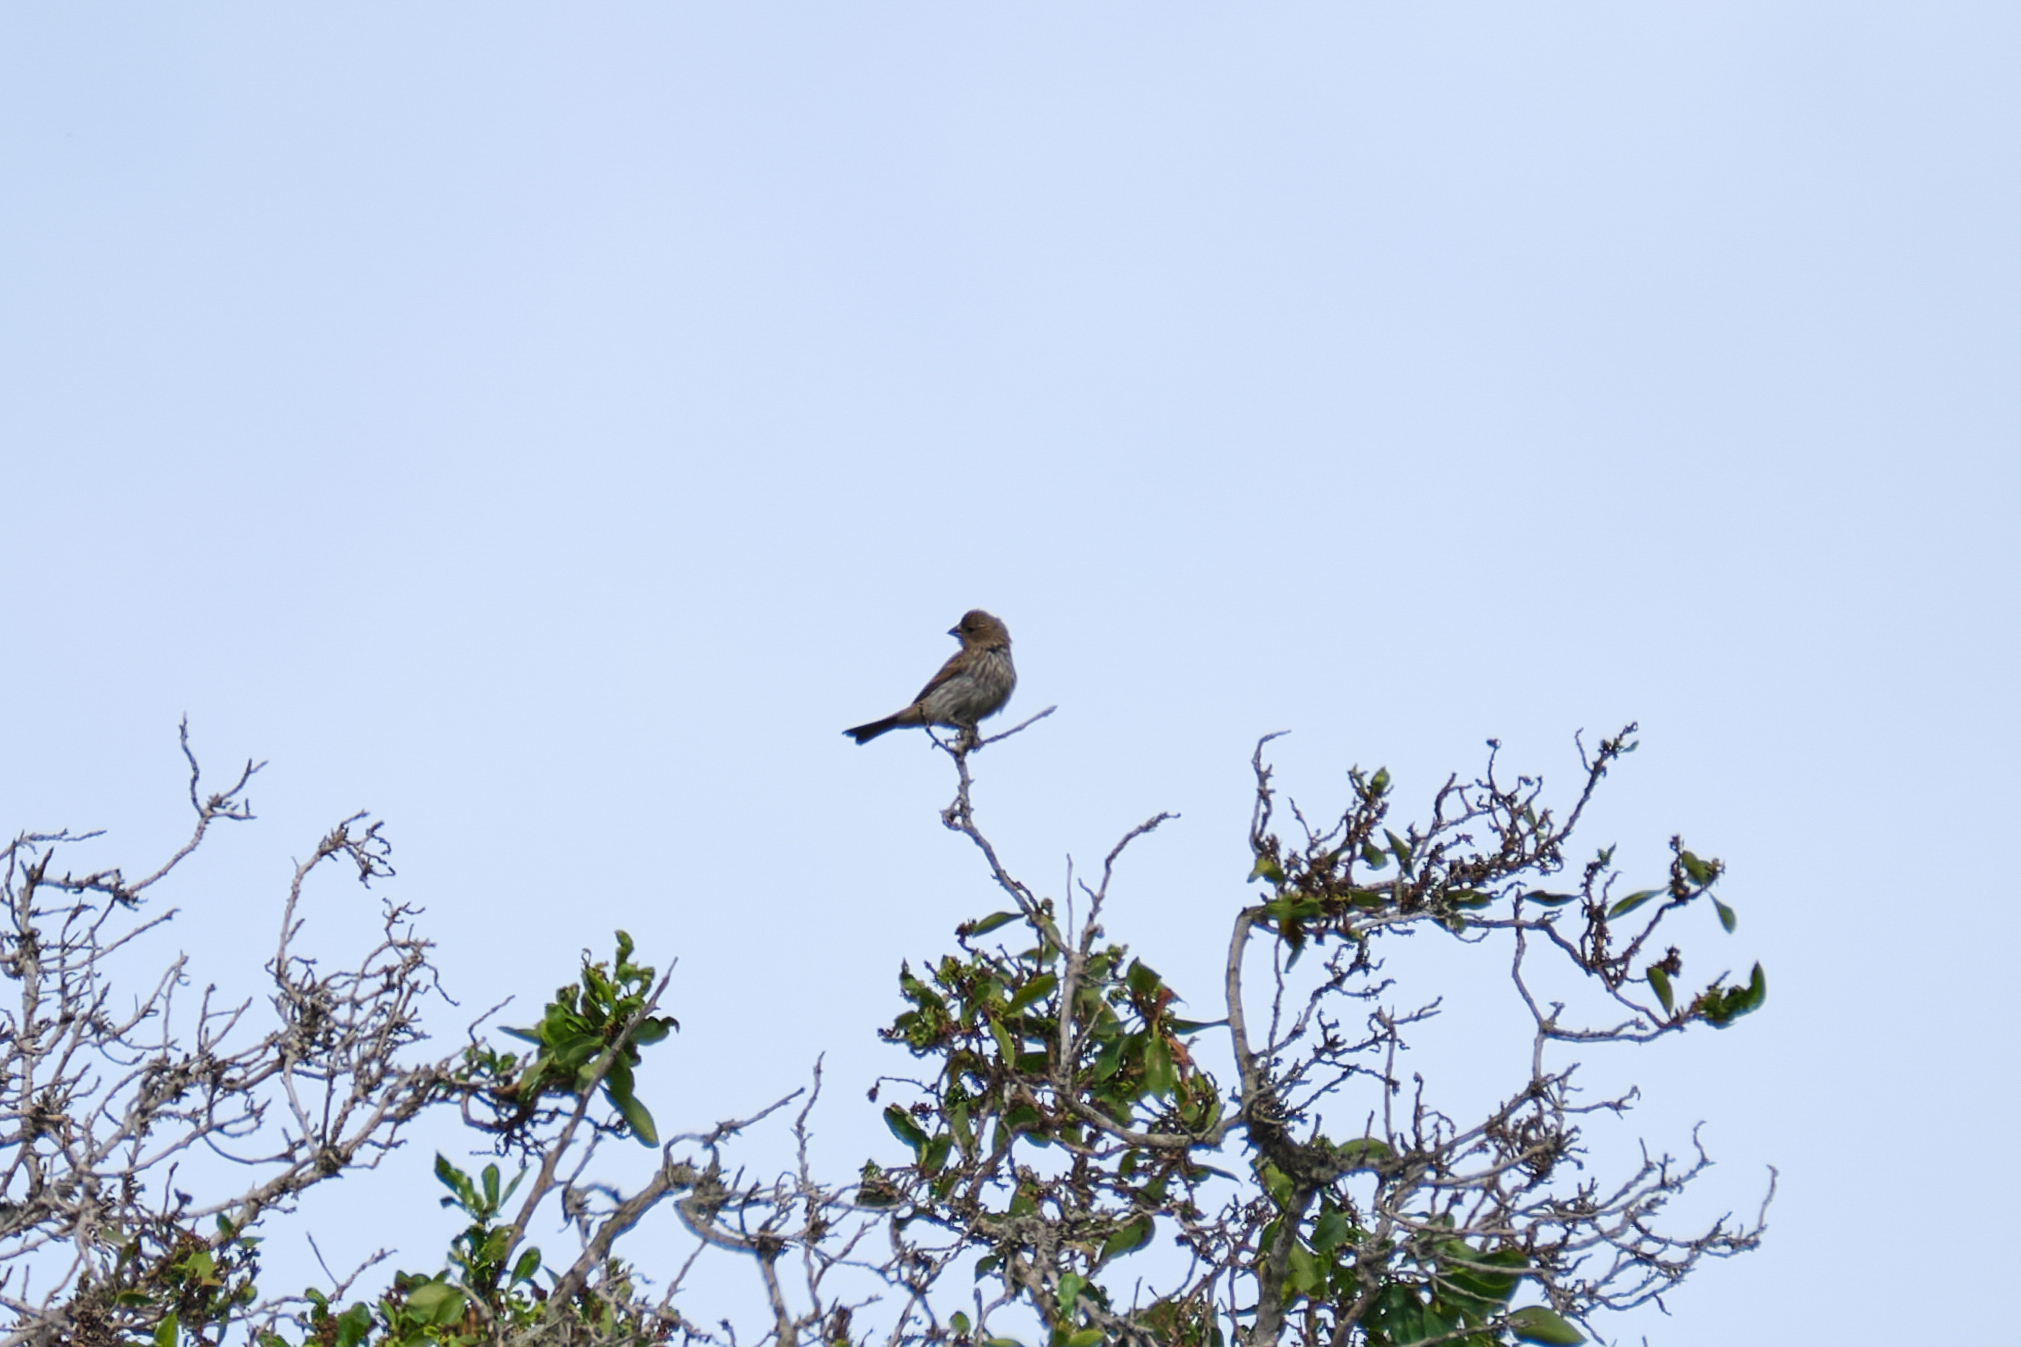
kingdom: Animalia
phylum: Chordata
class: Aves
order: Passeriformes
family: Fringillidae
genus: Haemorhous
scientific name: Haemorhous mexicanus
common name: House finch
